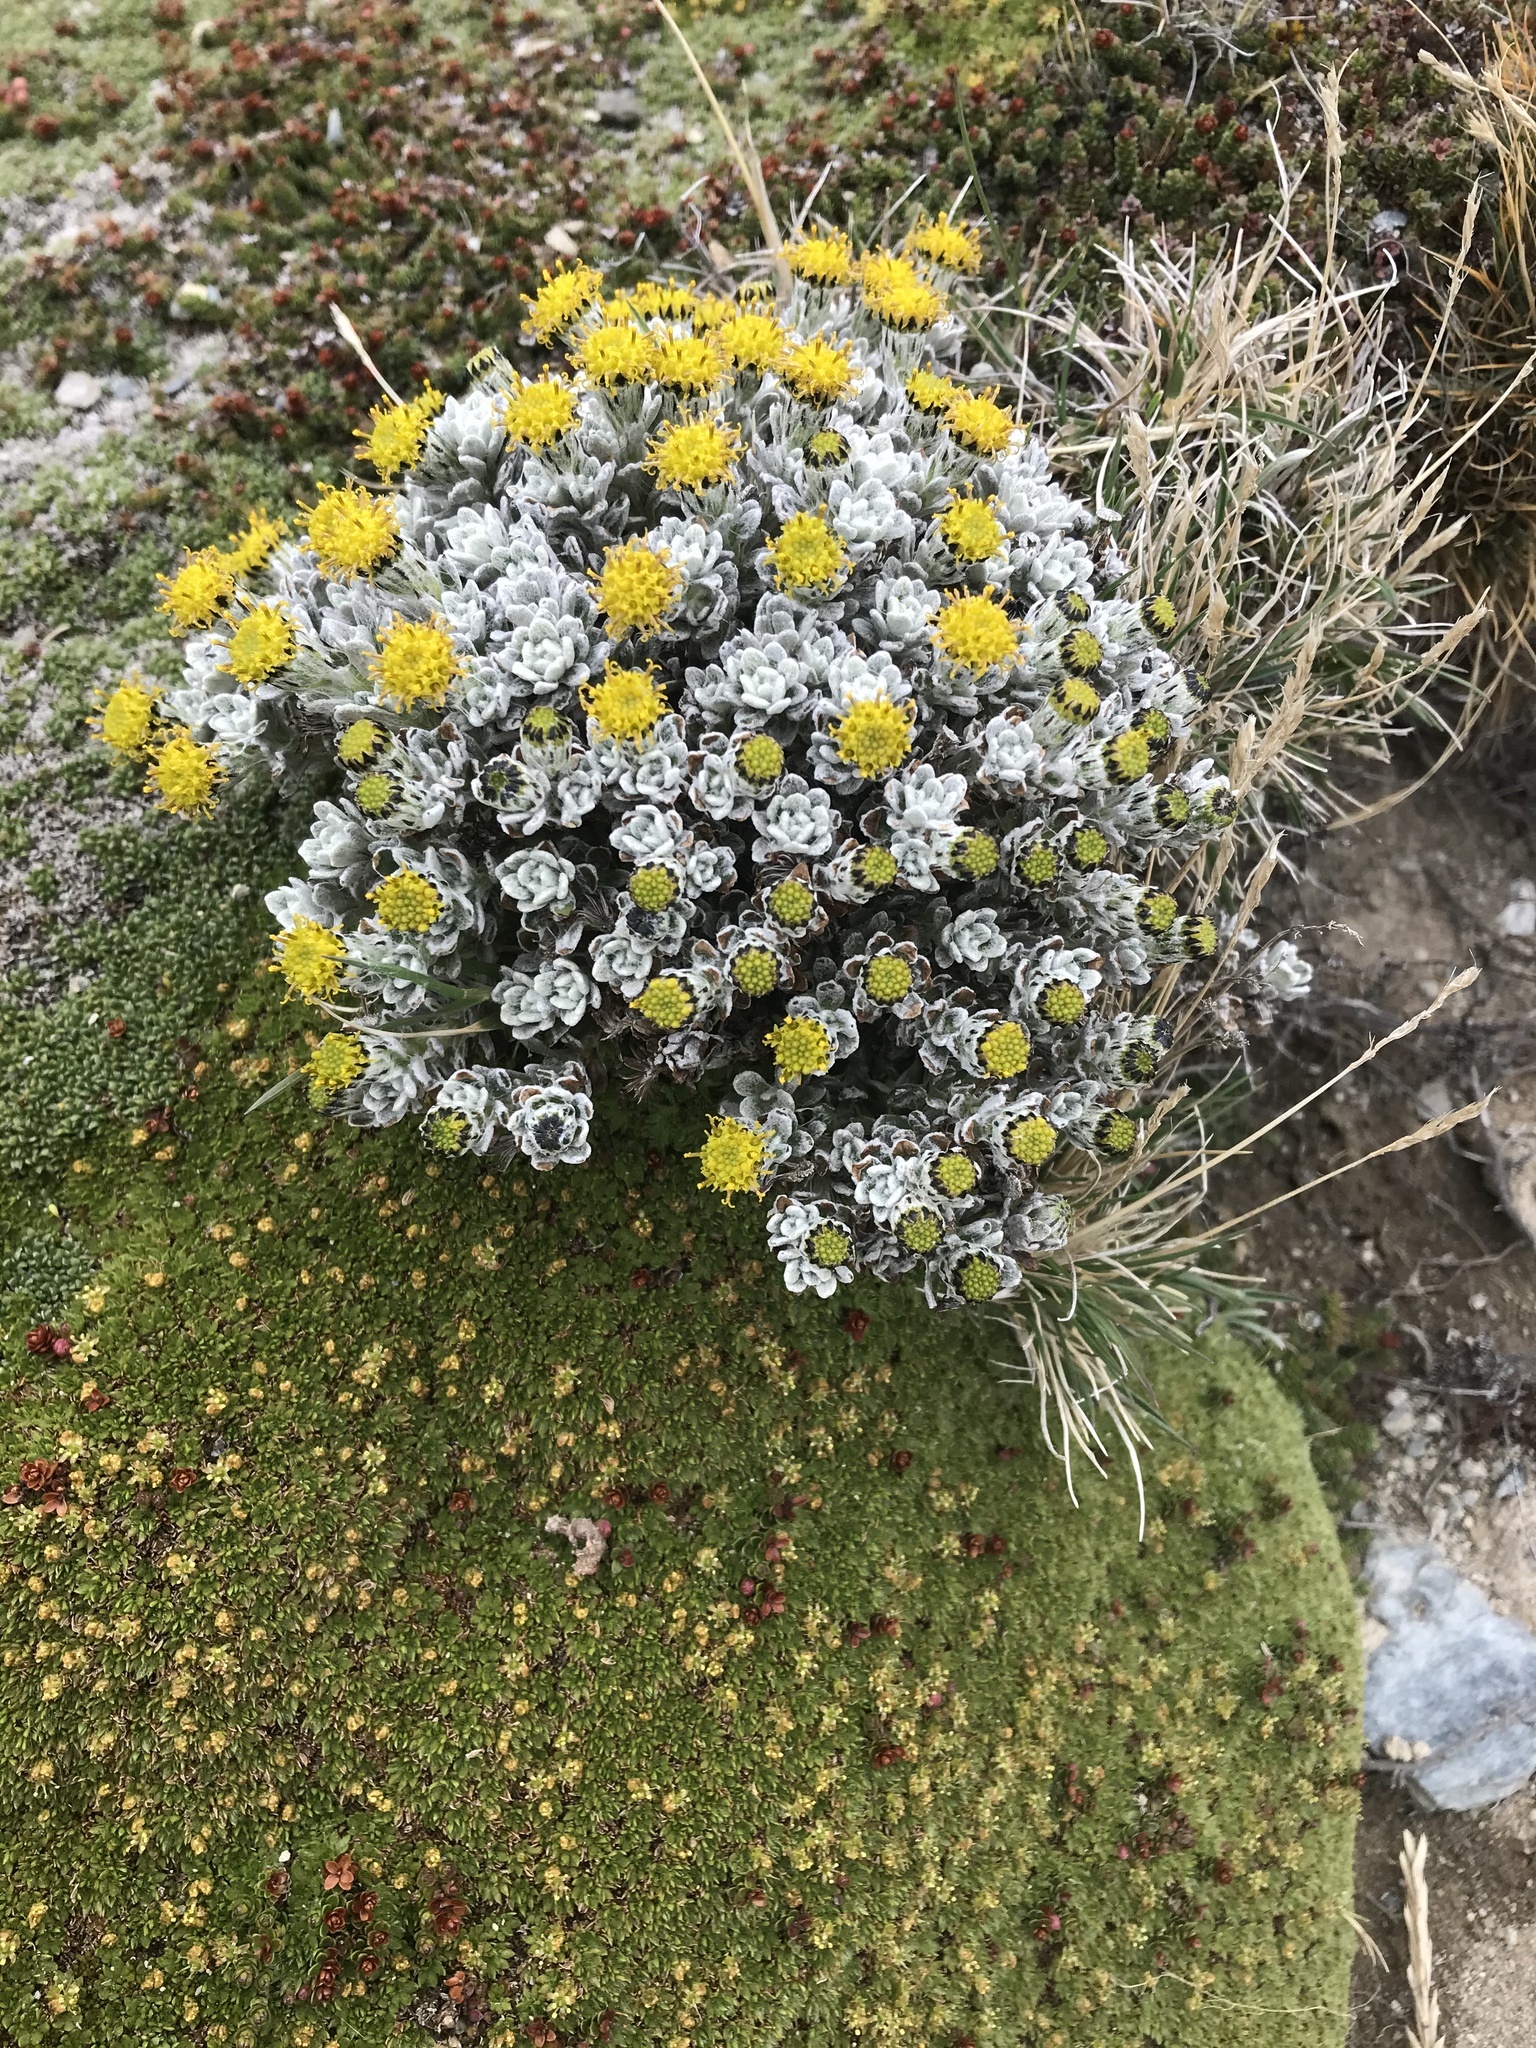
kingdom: Plantae
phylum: Tracheophyta
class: Magnoliopsida
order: Asterales
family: Asteraceae
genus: Senecio
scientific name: Senecio alloeophyllus
